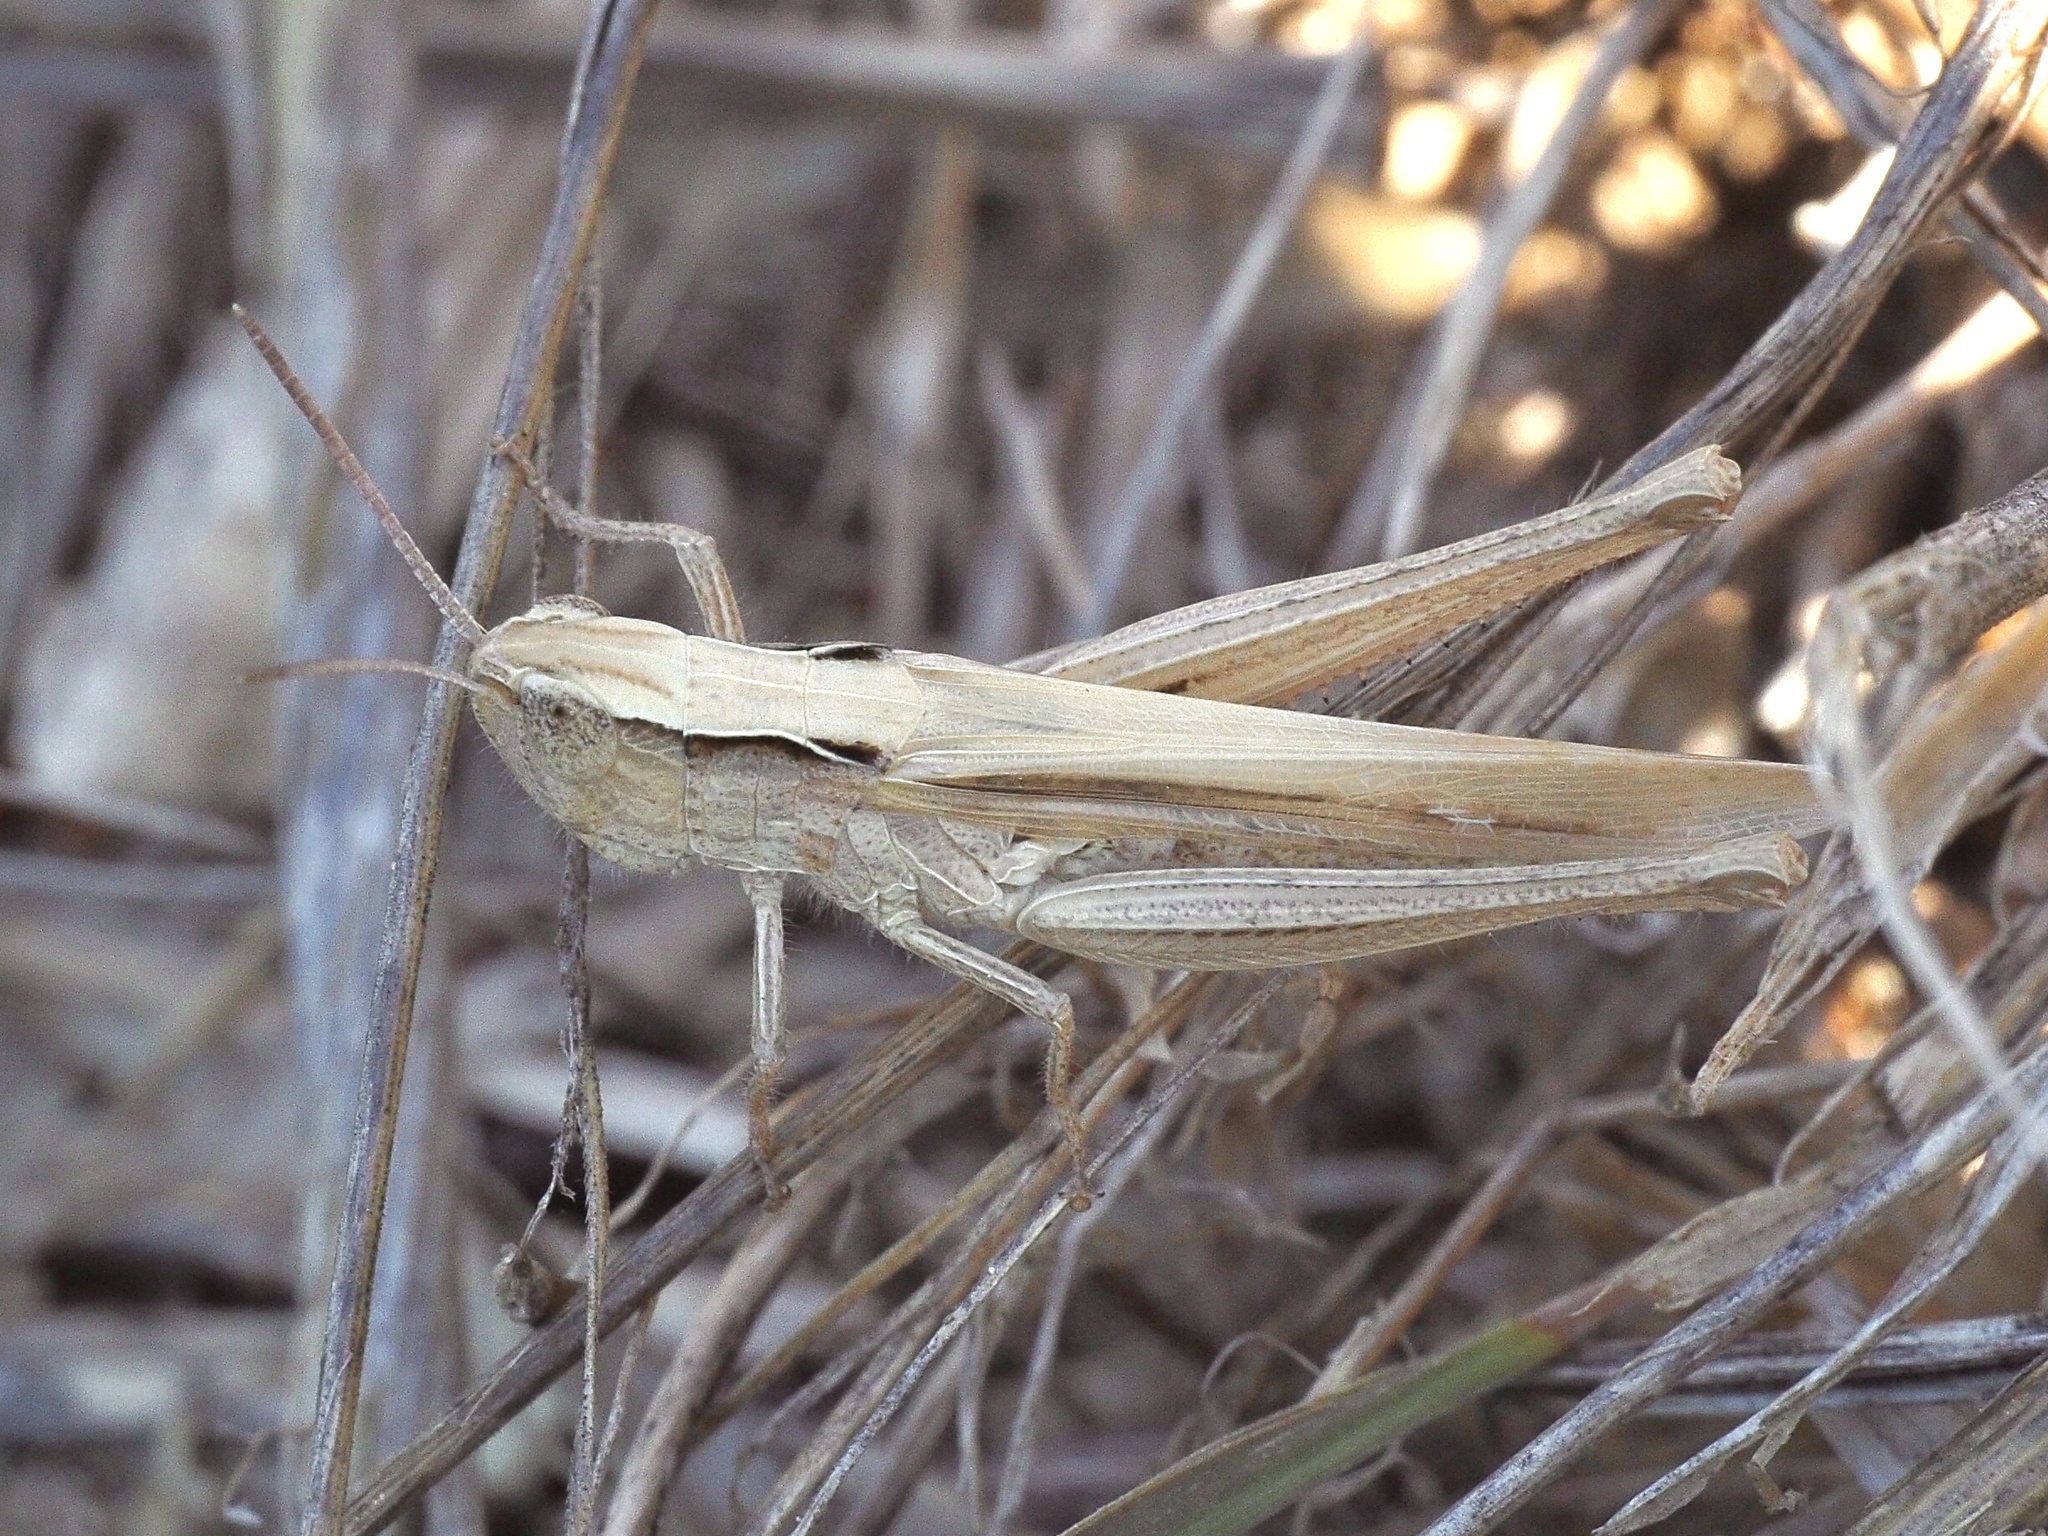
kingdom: Animalia
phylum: Arthropoda
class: Insecta
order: Orthoptera
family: Acrididae
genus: Chorthippus
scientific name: Chorthippus loratus
